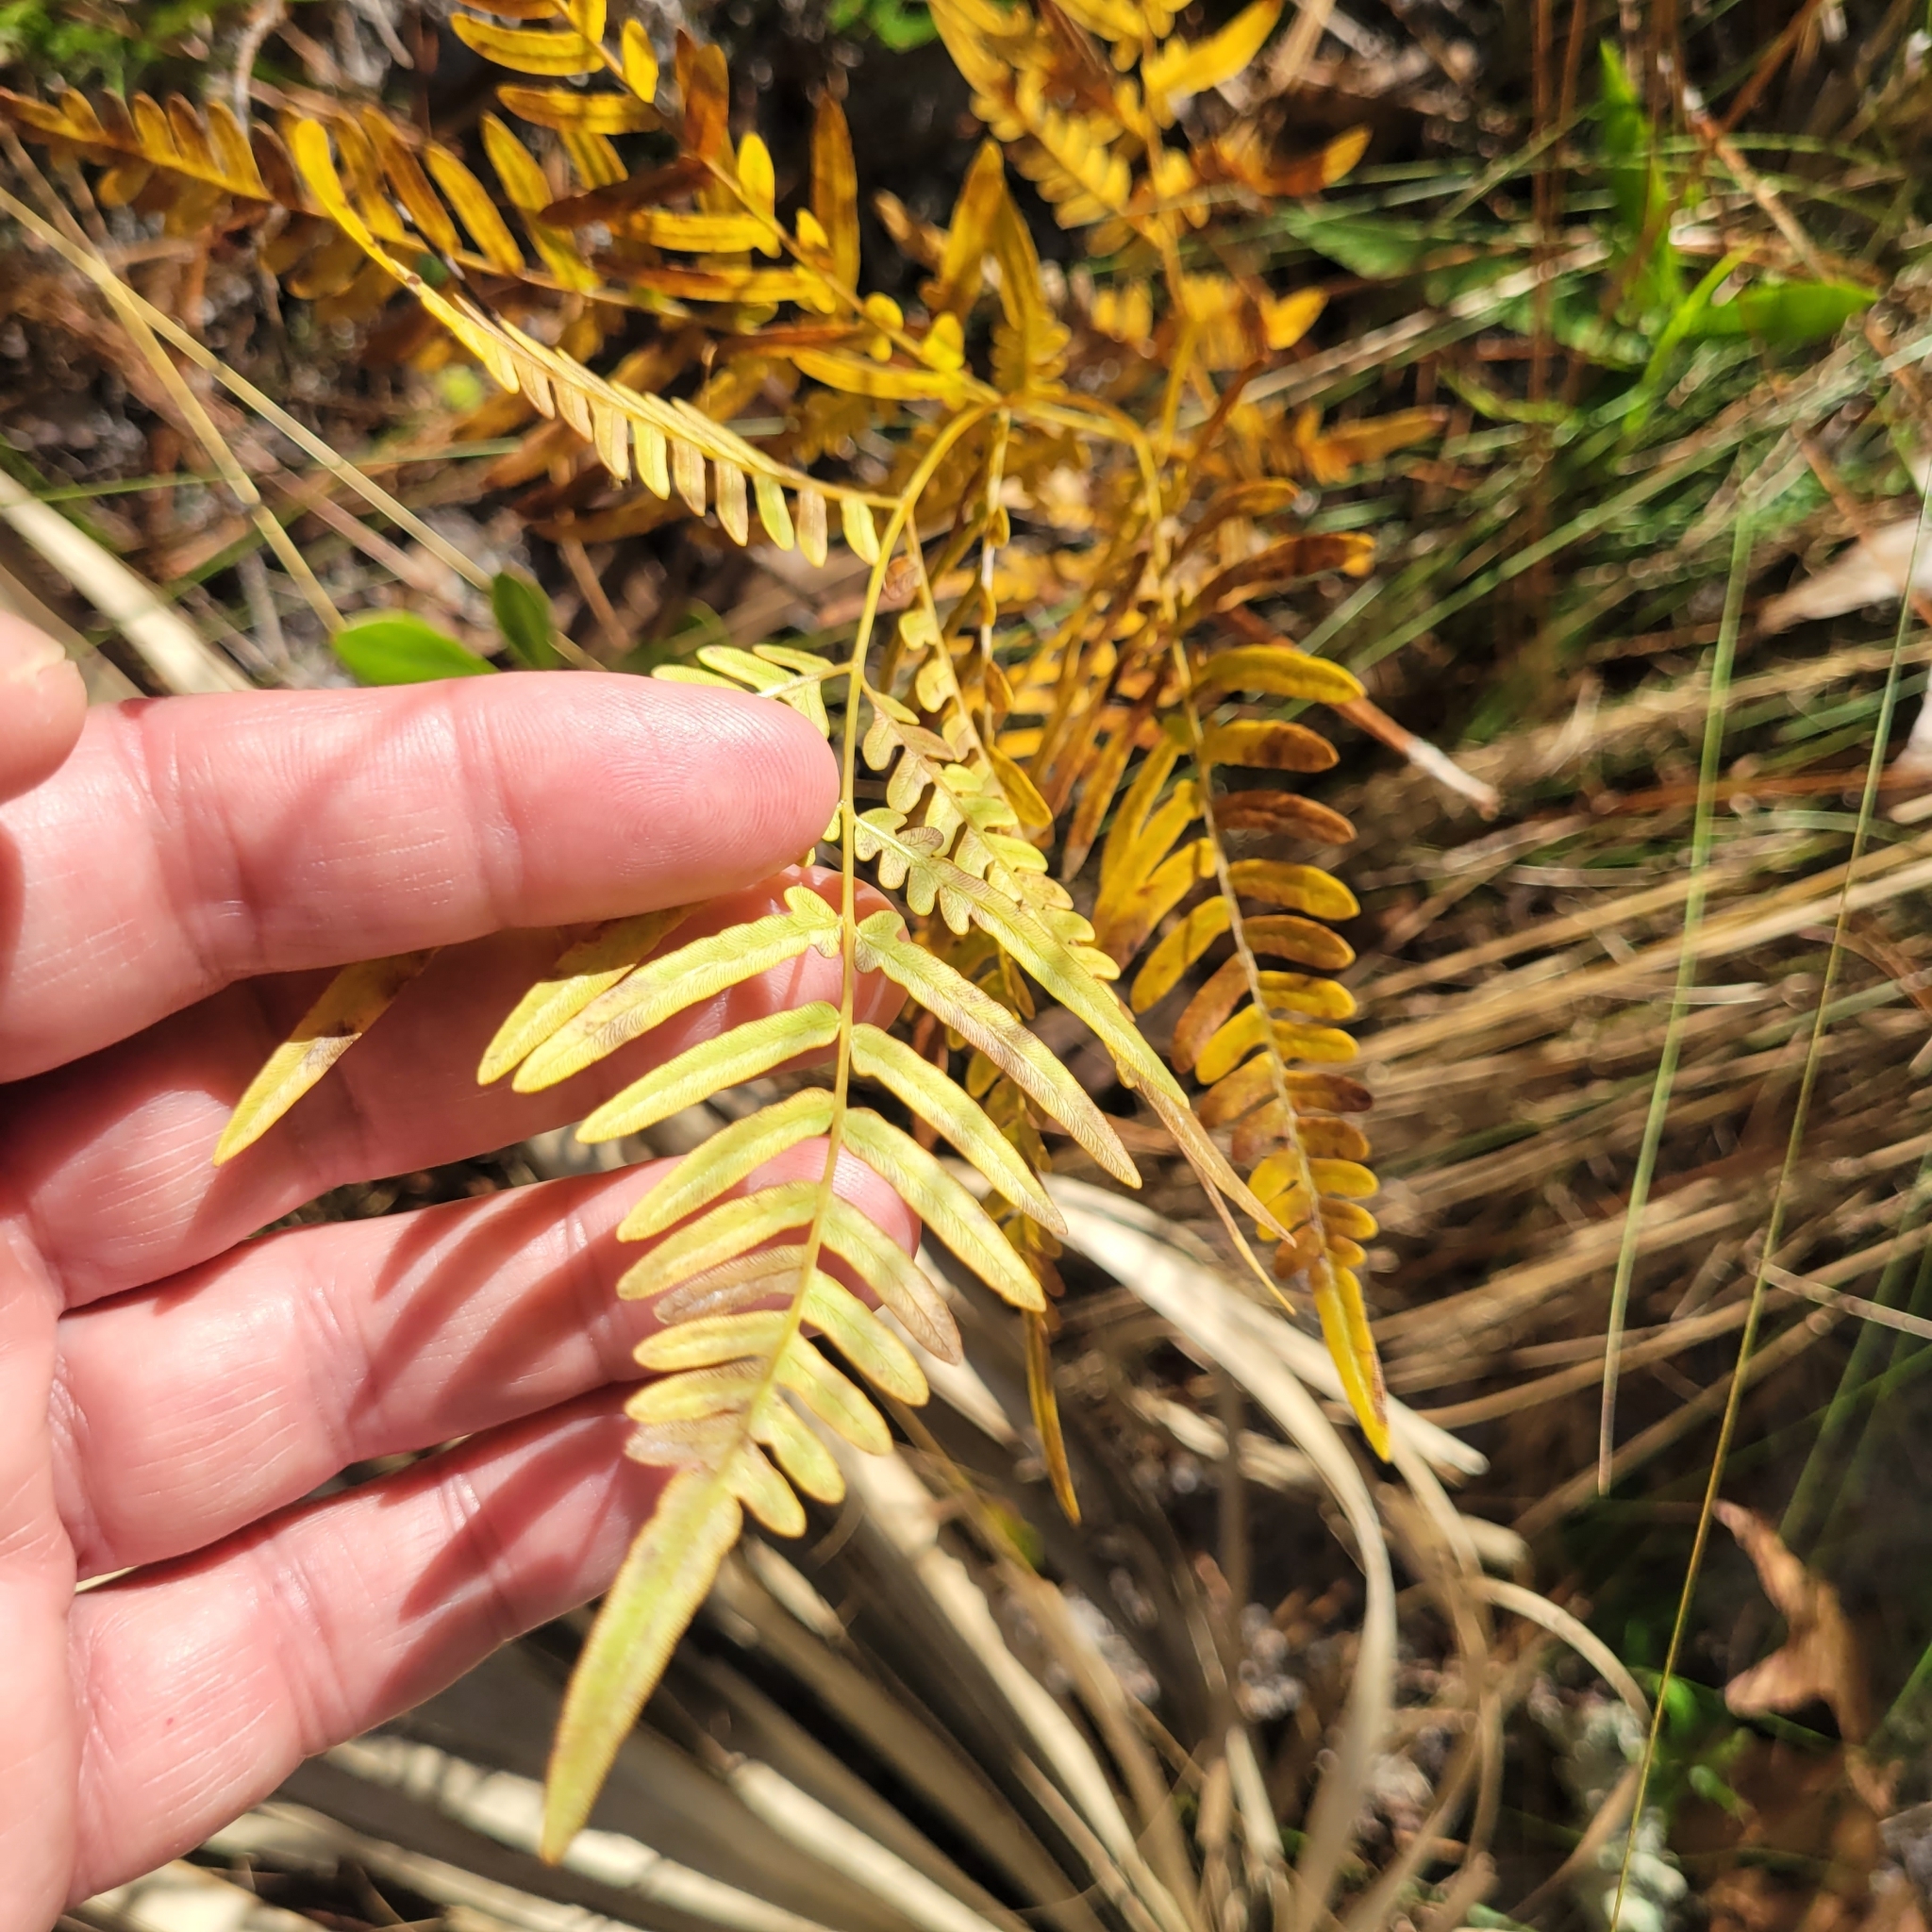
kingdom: Plantae
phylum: Tracheophyta
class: Polypodiopsida
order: Polypodiales
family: Dennstaedtiaceae
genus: Pteridium
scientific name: Pteridium aquilinum
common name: Bracken
